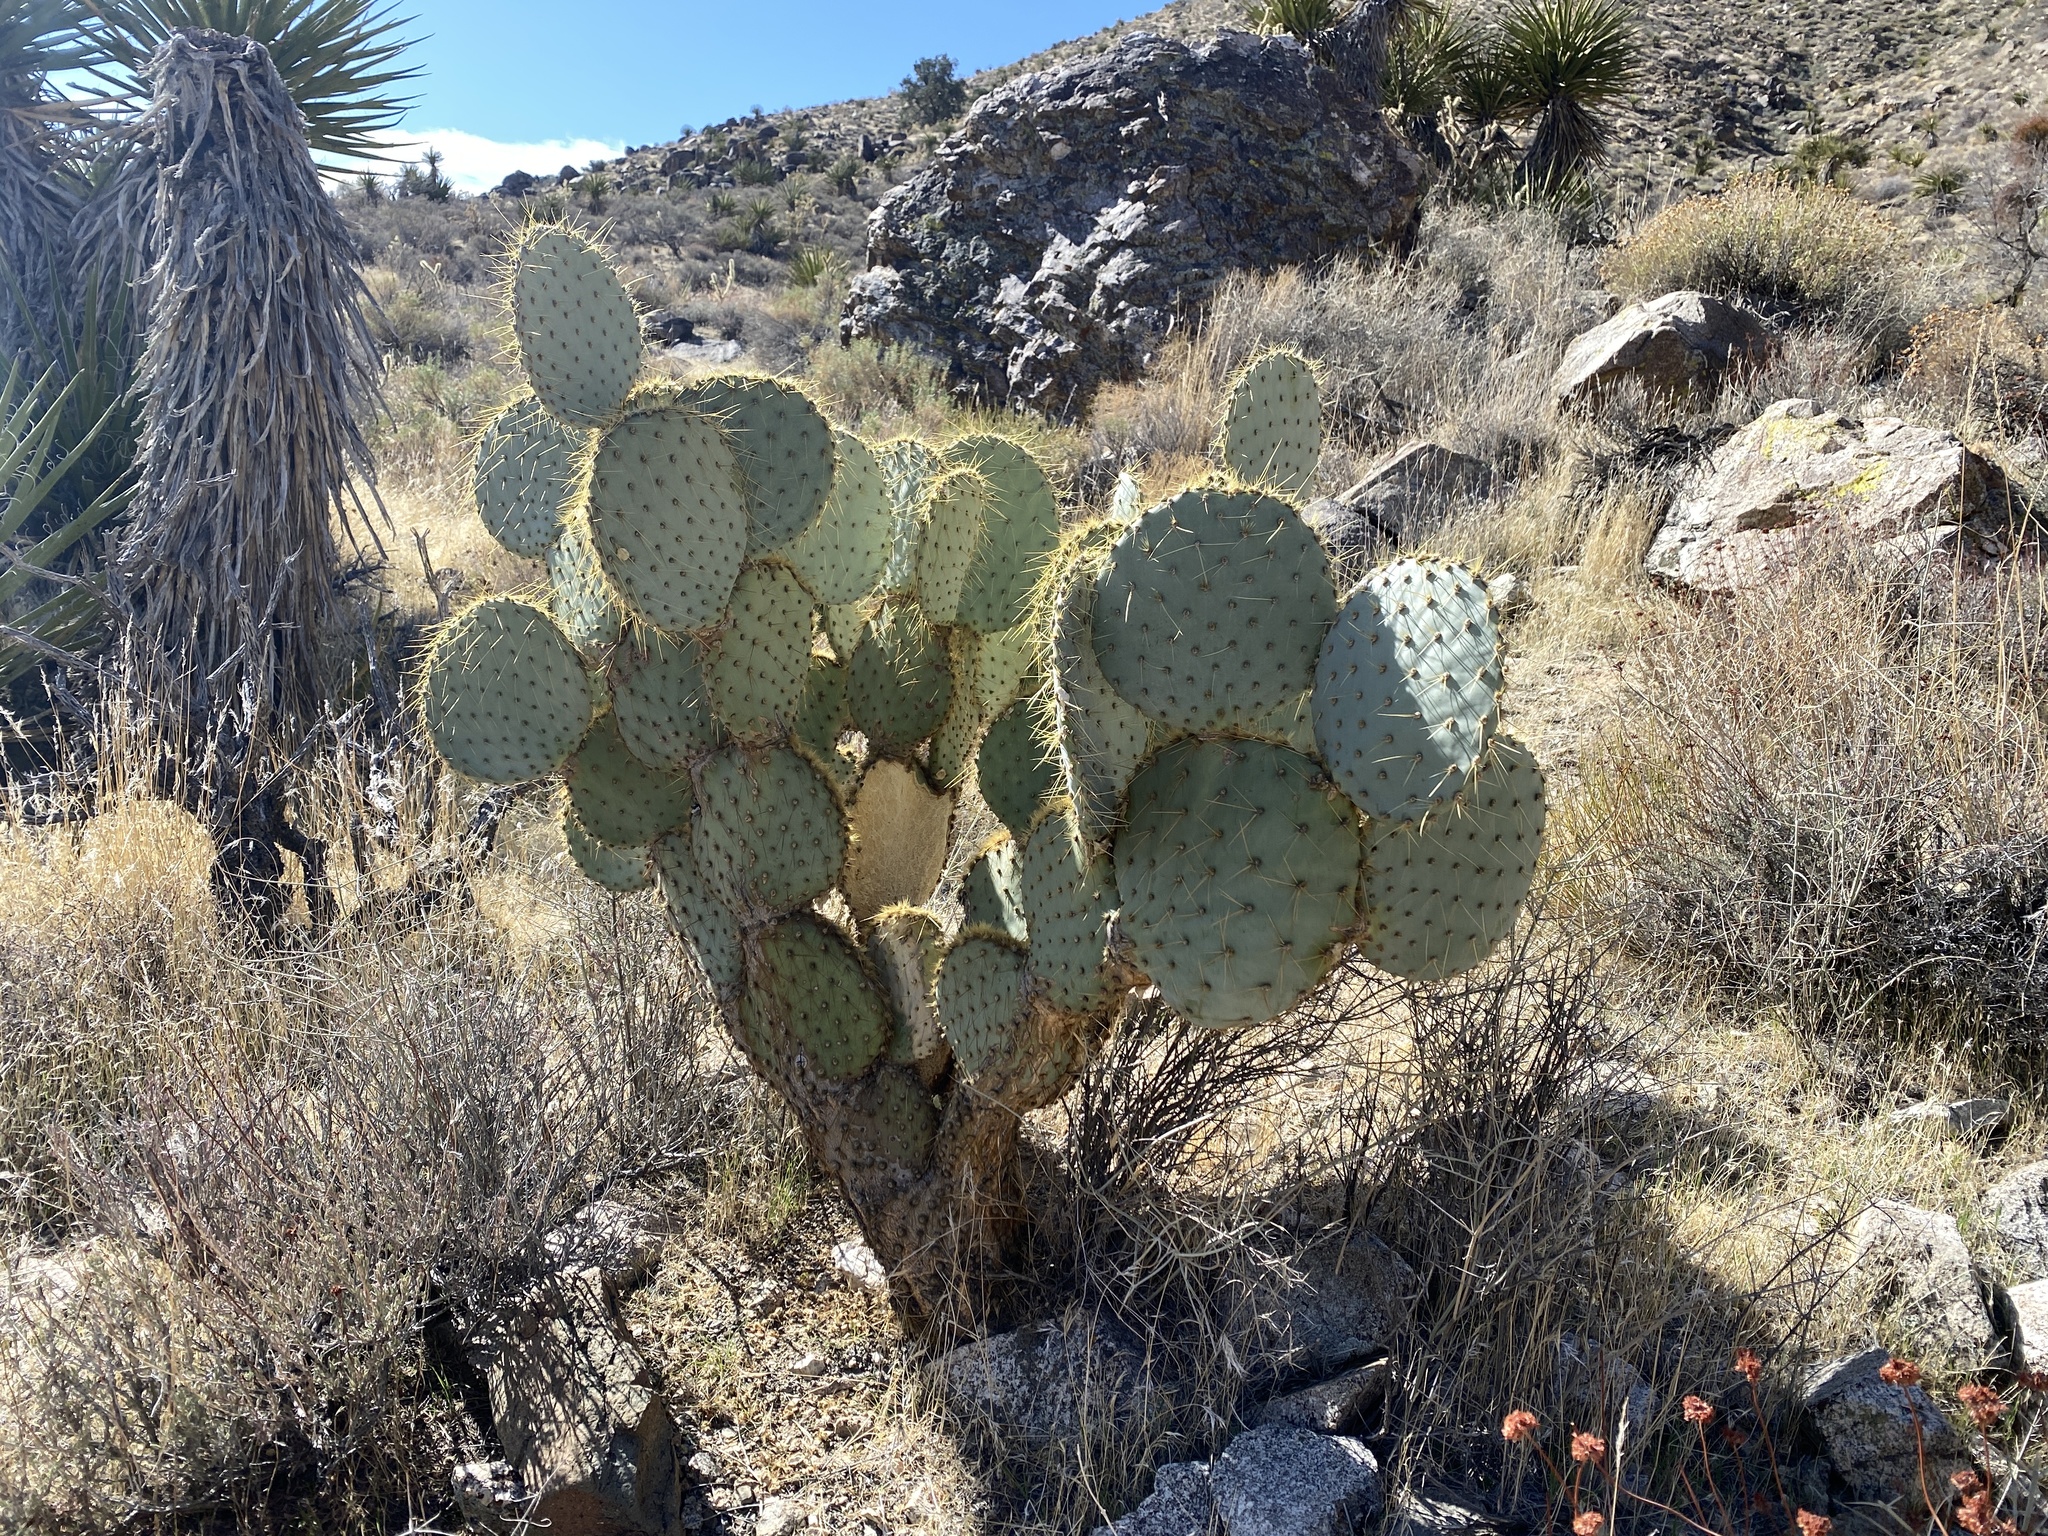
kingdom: Plantae
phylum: Tracheophyta
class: Magnoliopsida
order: Caryophyllales
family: Cactaceae
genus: Opuntia
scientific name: Opuntia chlorotica
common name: Dollar-joint prickly-pear
